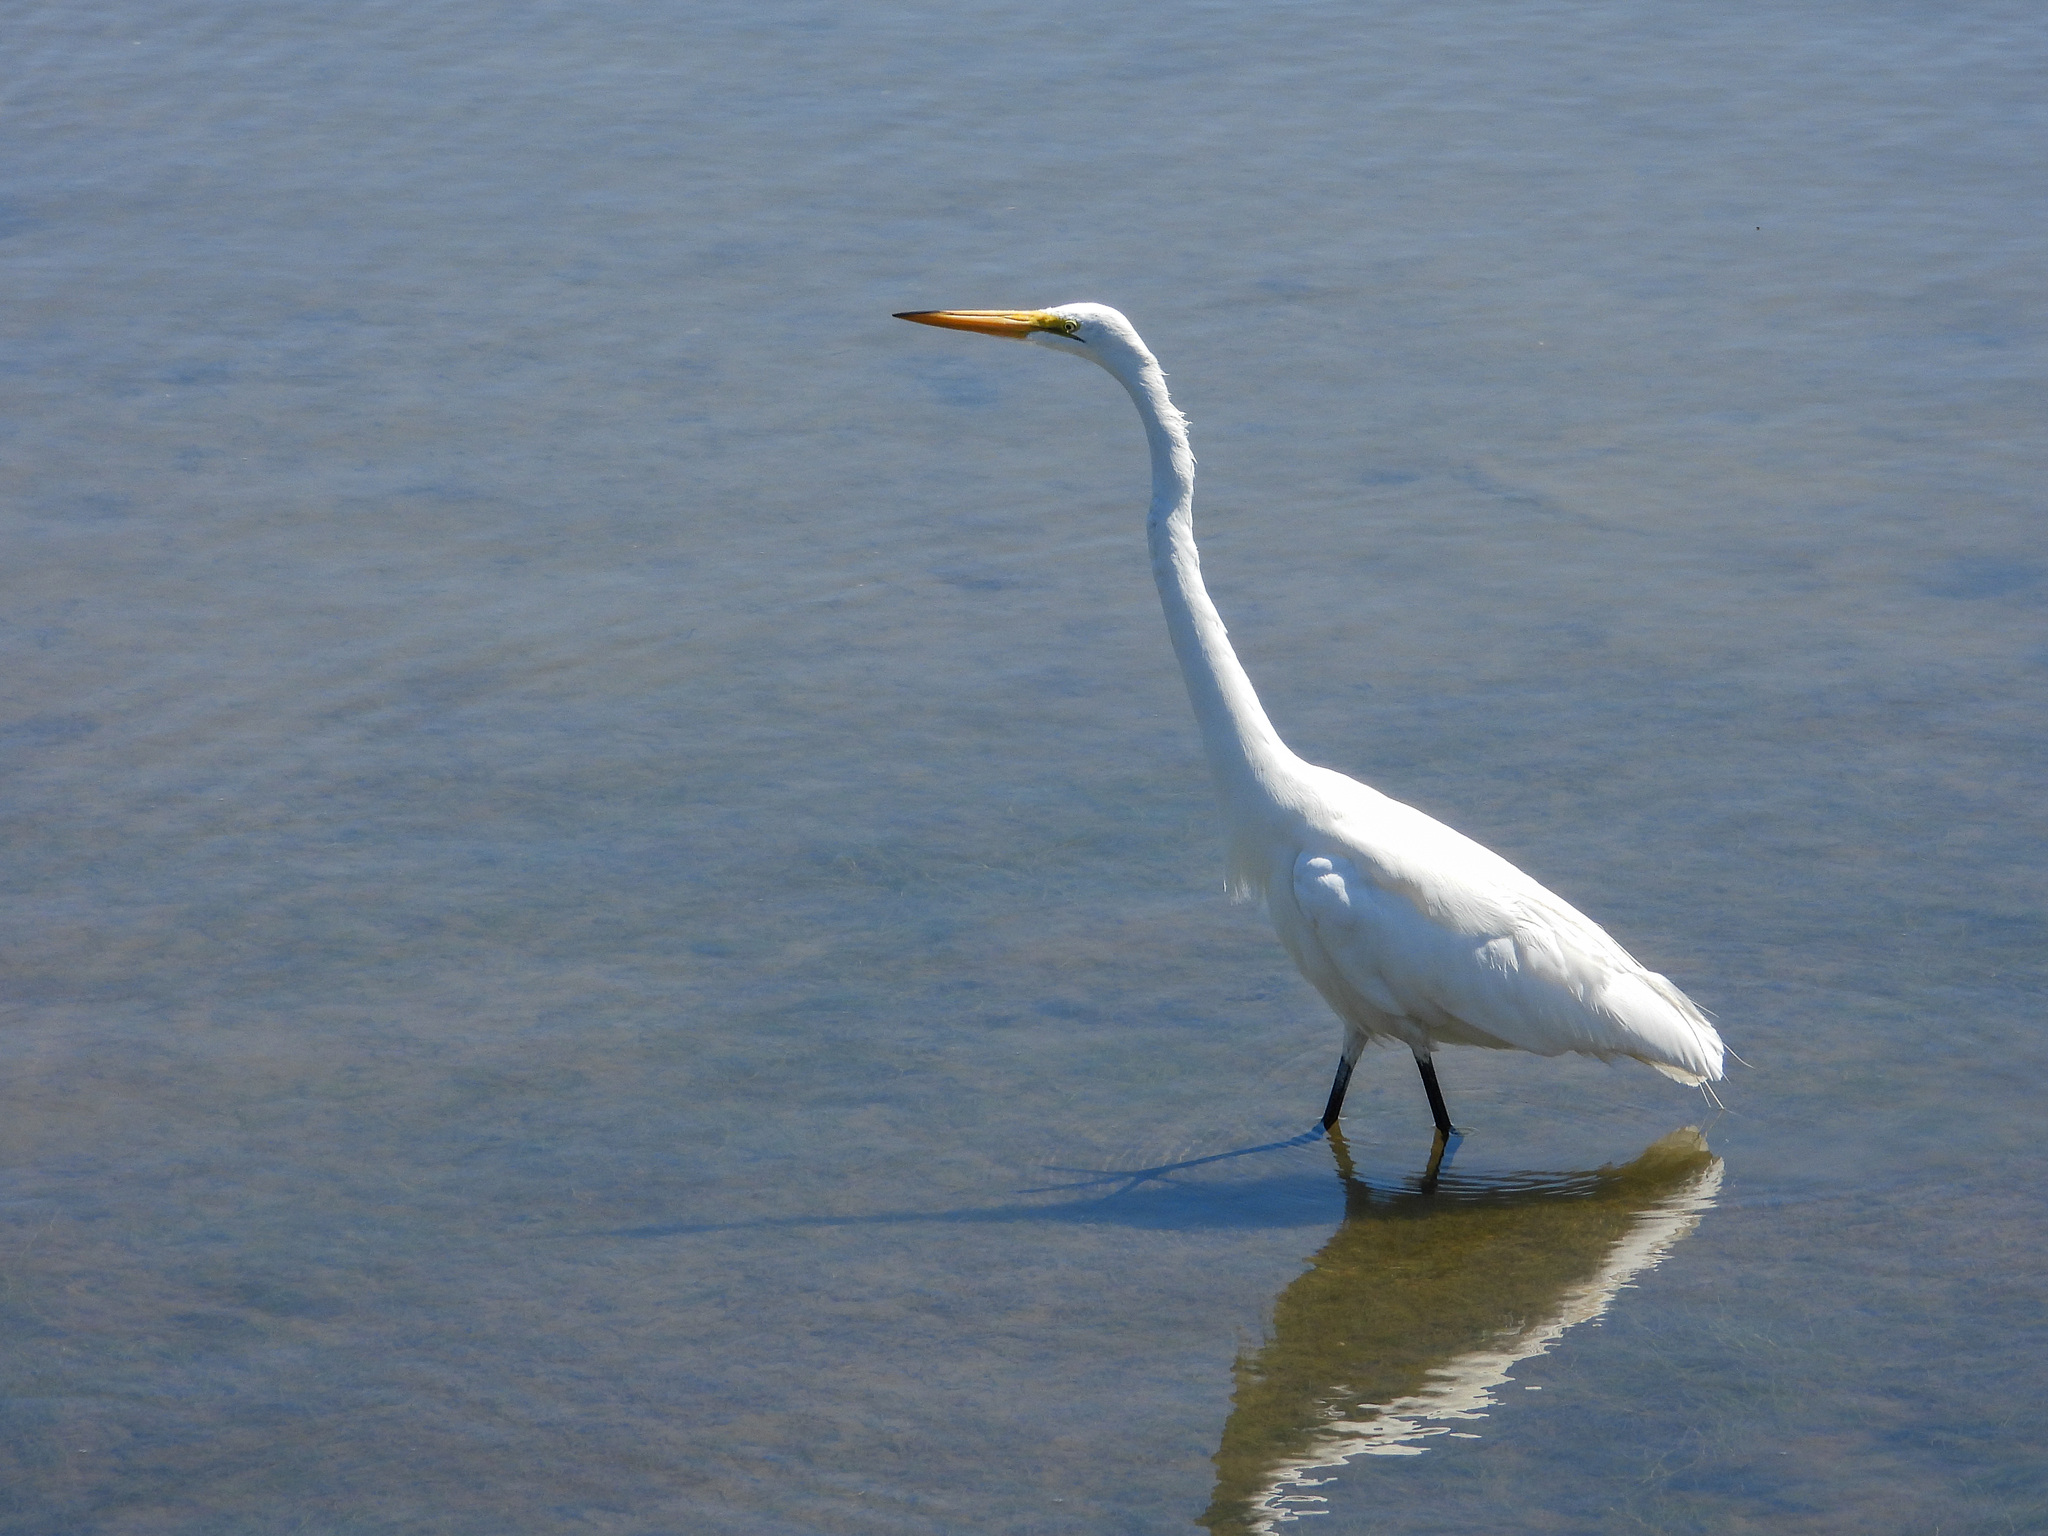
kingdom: Animalia
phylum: Chordata
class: Aves
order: Pelecaniformes
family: Ardeidae
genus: Ardea
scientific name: Ardea alba
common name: Great egret
